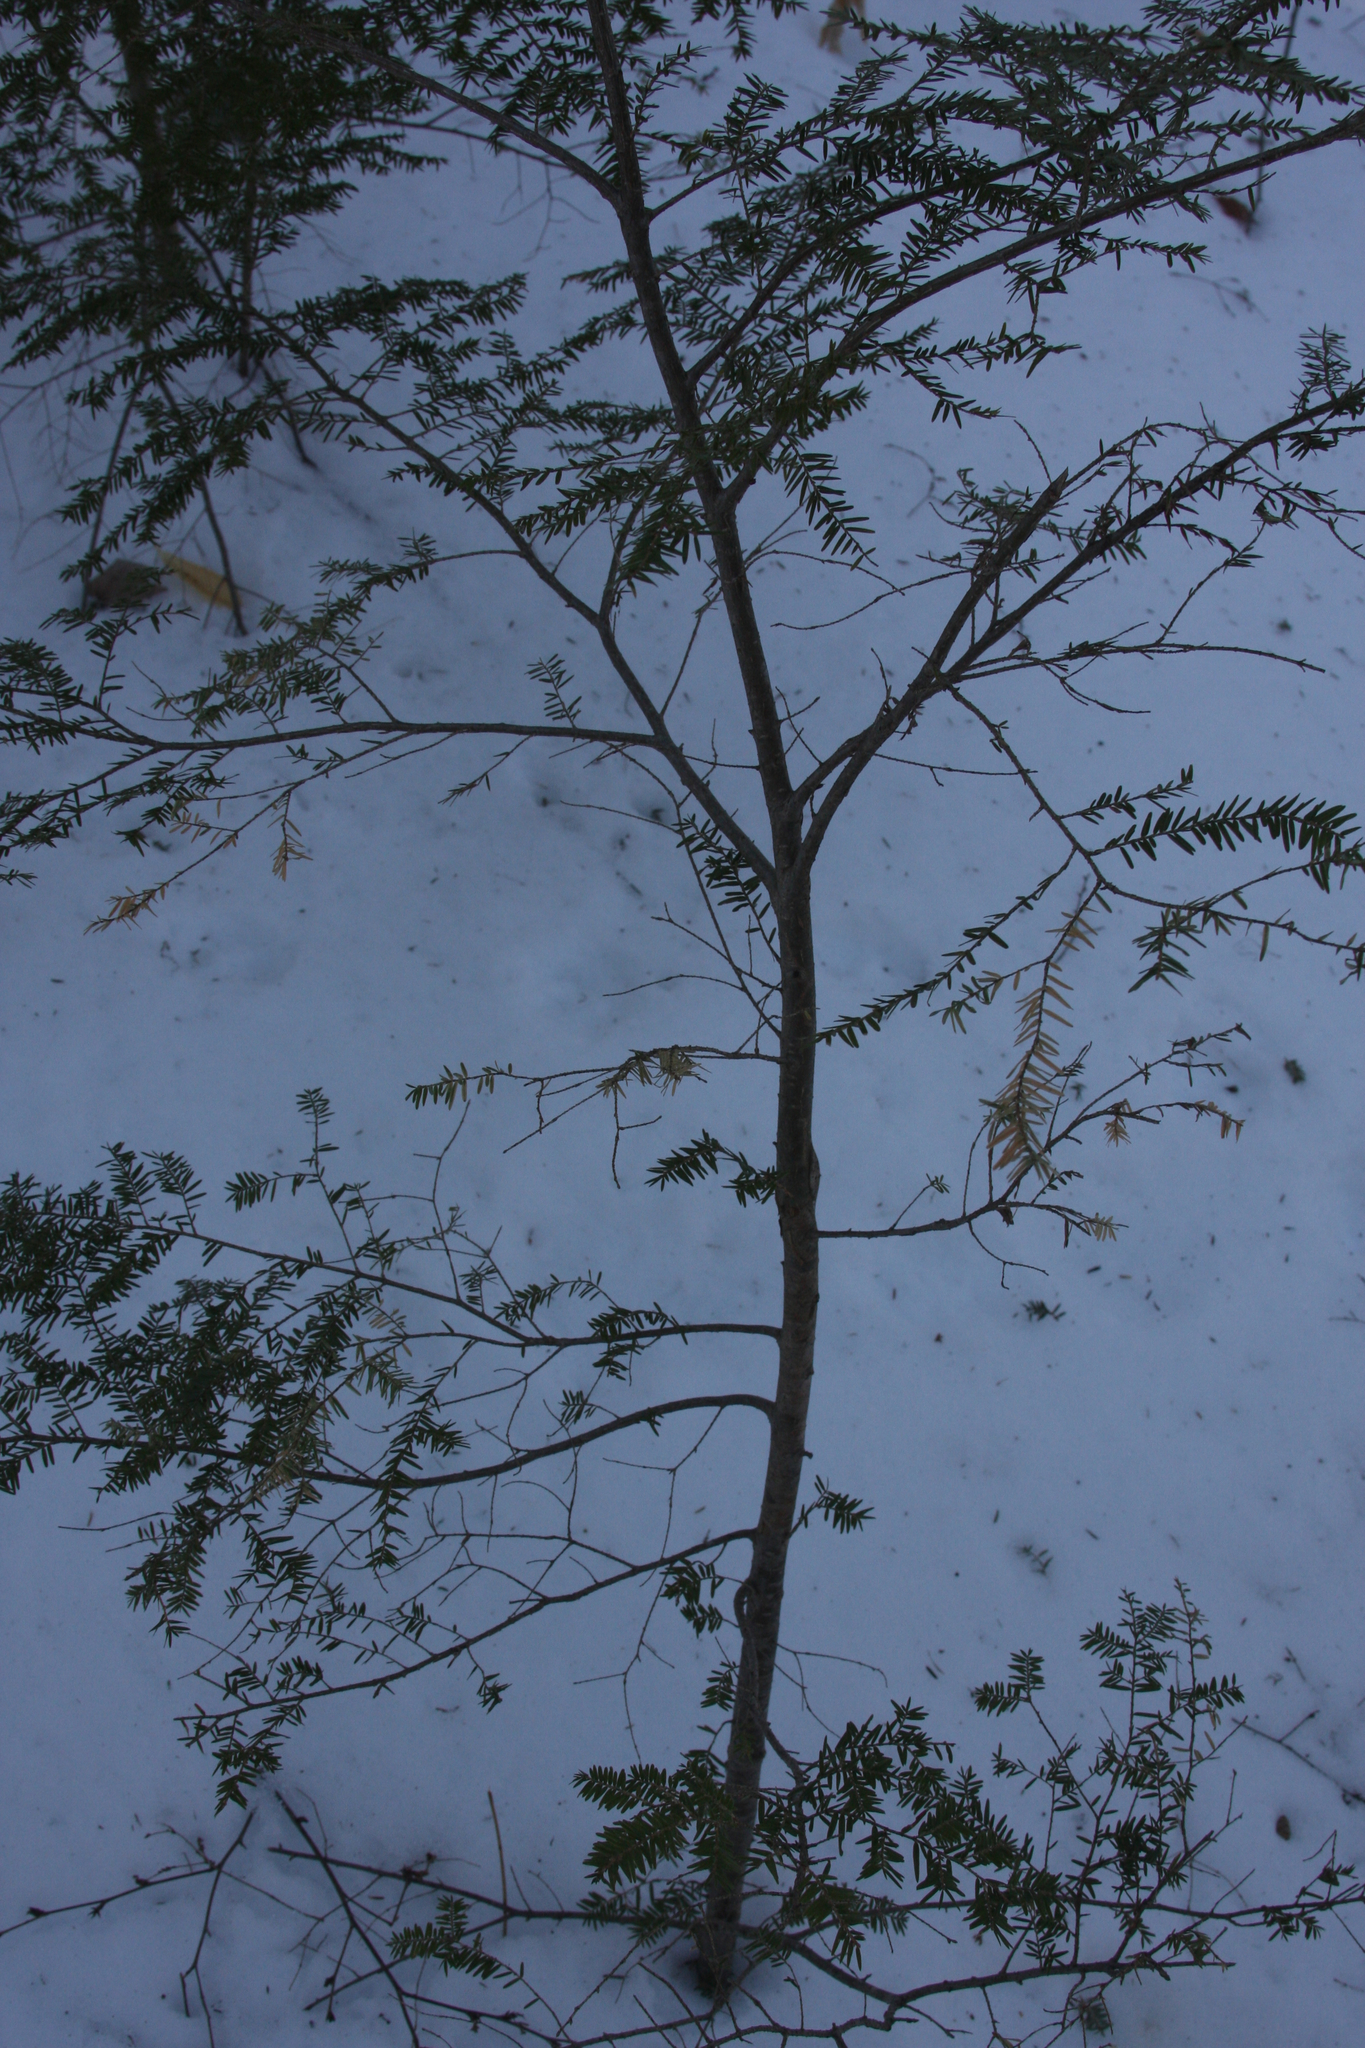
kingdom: Plantae
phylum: Tracheophyta
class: Pinopsida
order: Pinales
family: Pinaceae
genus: Tsuga
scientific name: Tsuga canadensis
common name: Eastern hemlock
